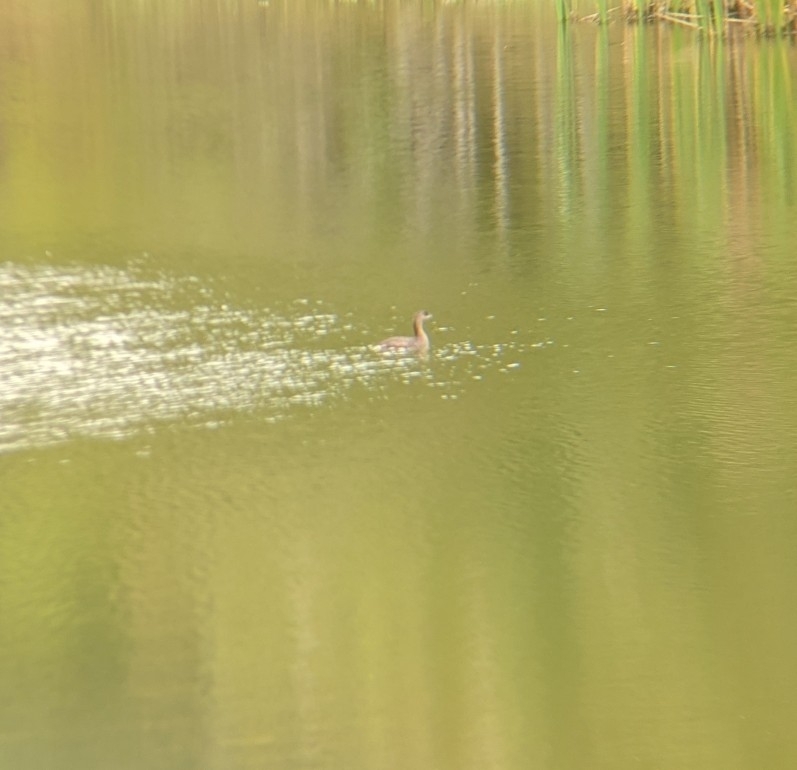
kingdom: Animalia
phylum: Chordata
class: Aves
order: Podicipediformes
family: Podicipedidae
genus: Podilymbus
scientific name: Podilymbus podiceps
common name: Pied-billed grebe
